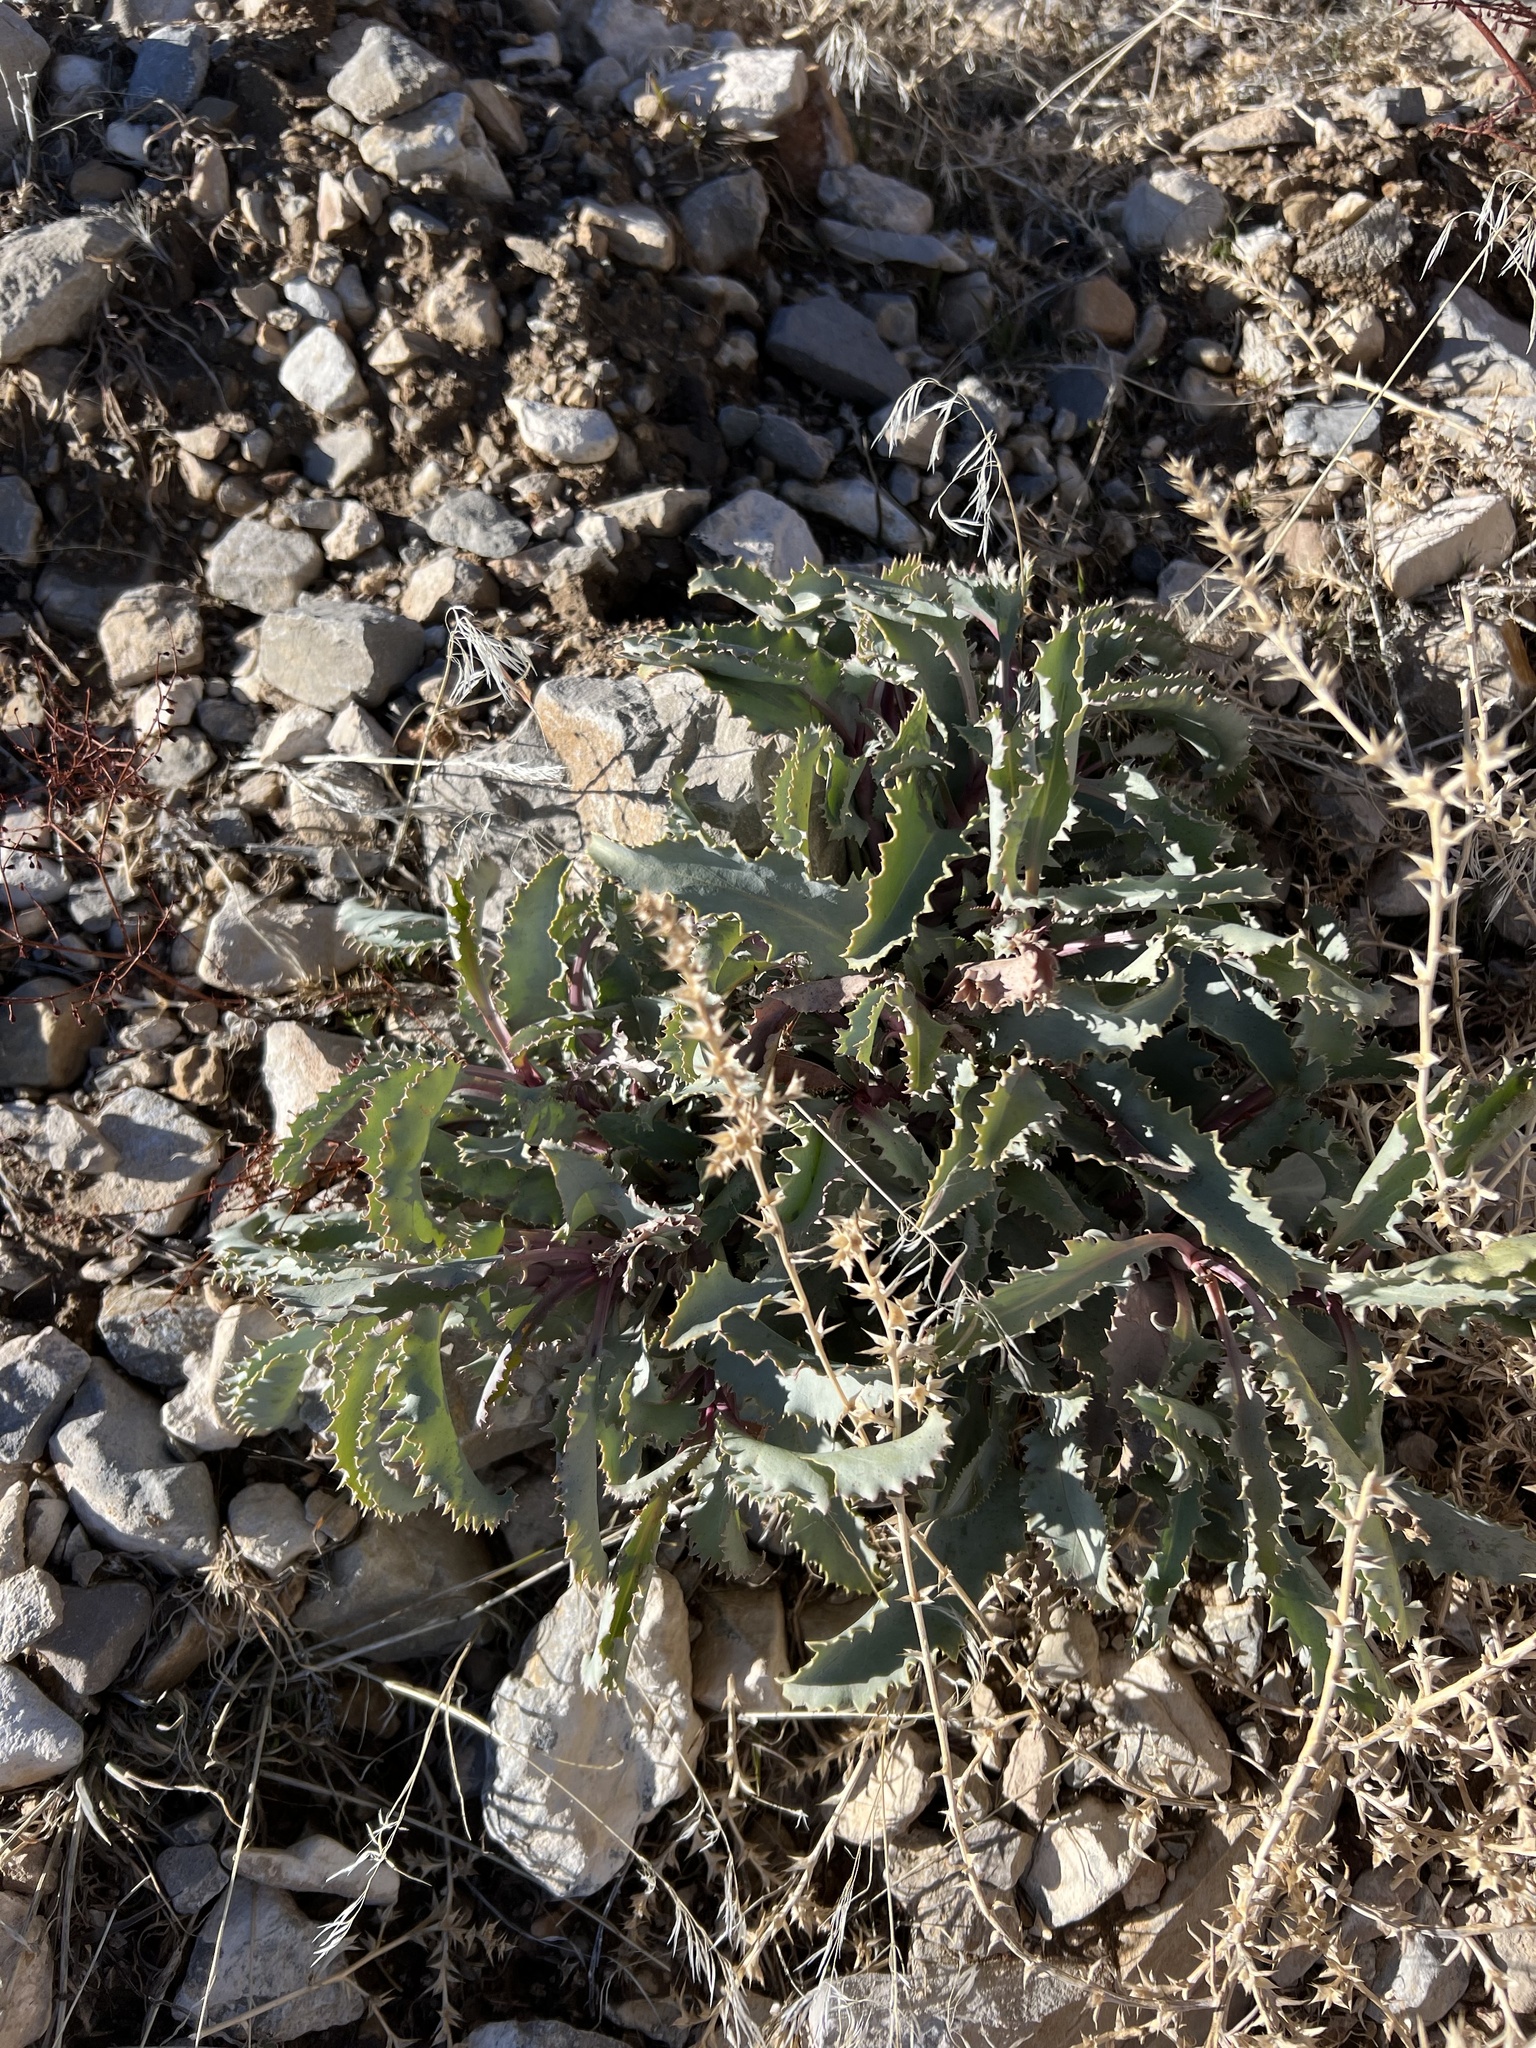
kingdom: Plantae
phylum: Tracheophyta
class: Magnoliopsida
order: Lamiales
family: Plantaginaceae
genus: Penstemon
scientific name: Penstemon palmeri
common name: Palmer penstemon
